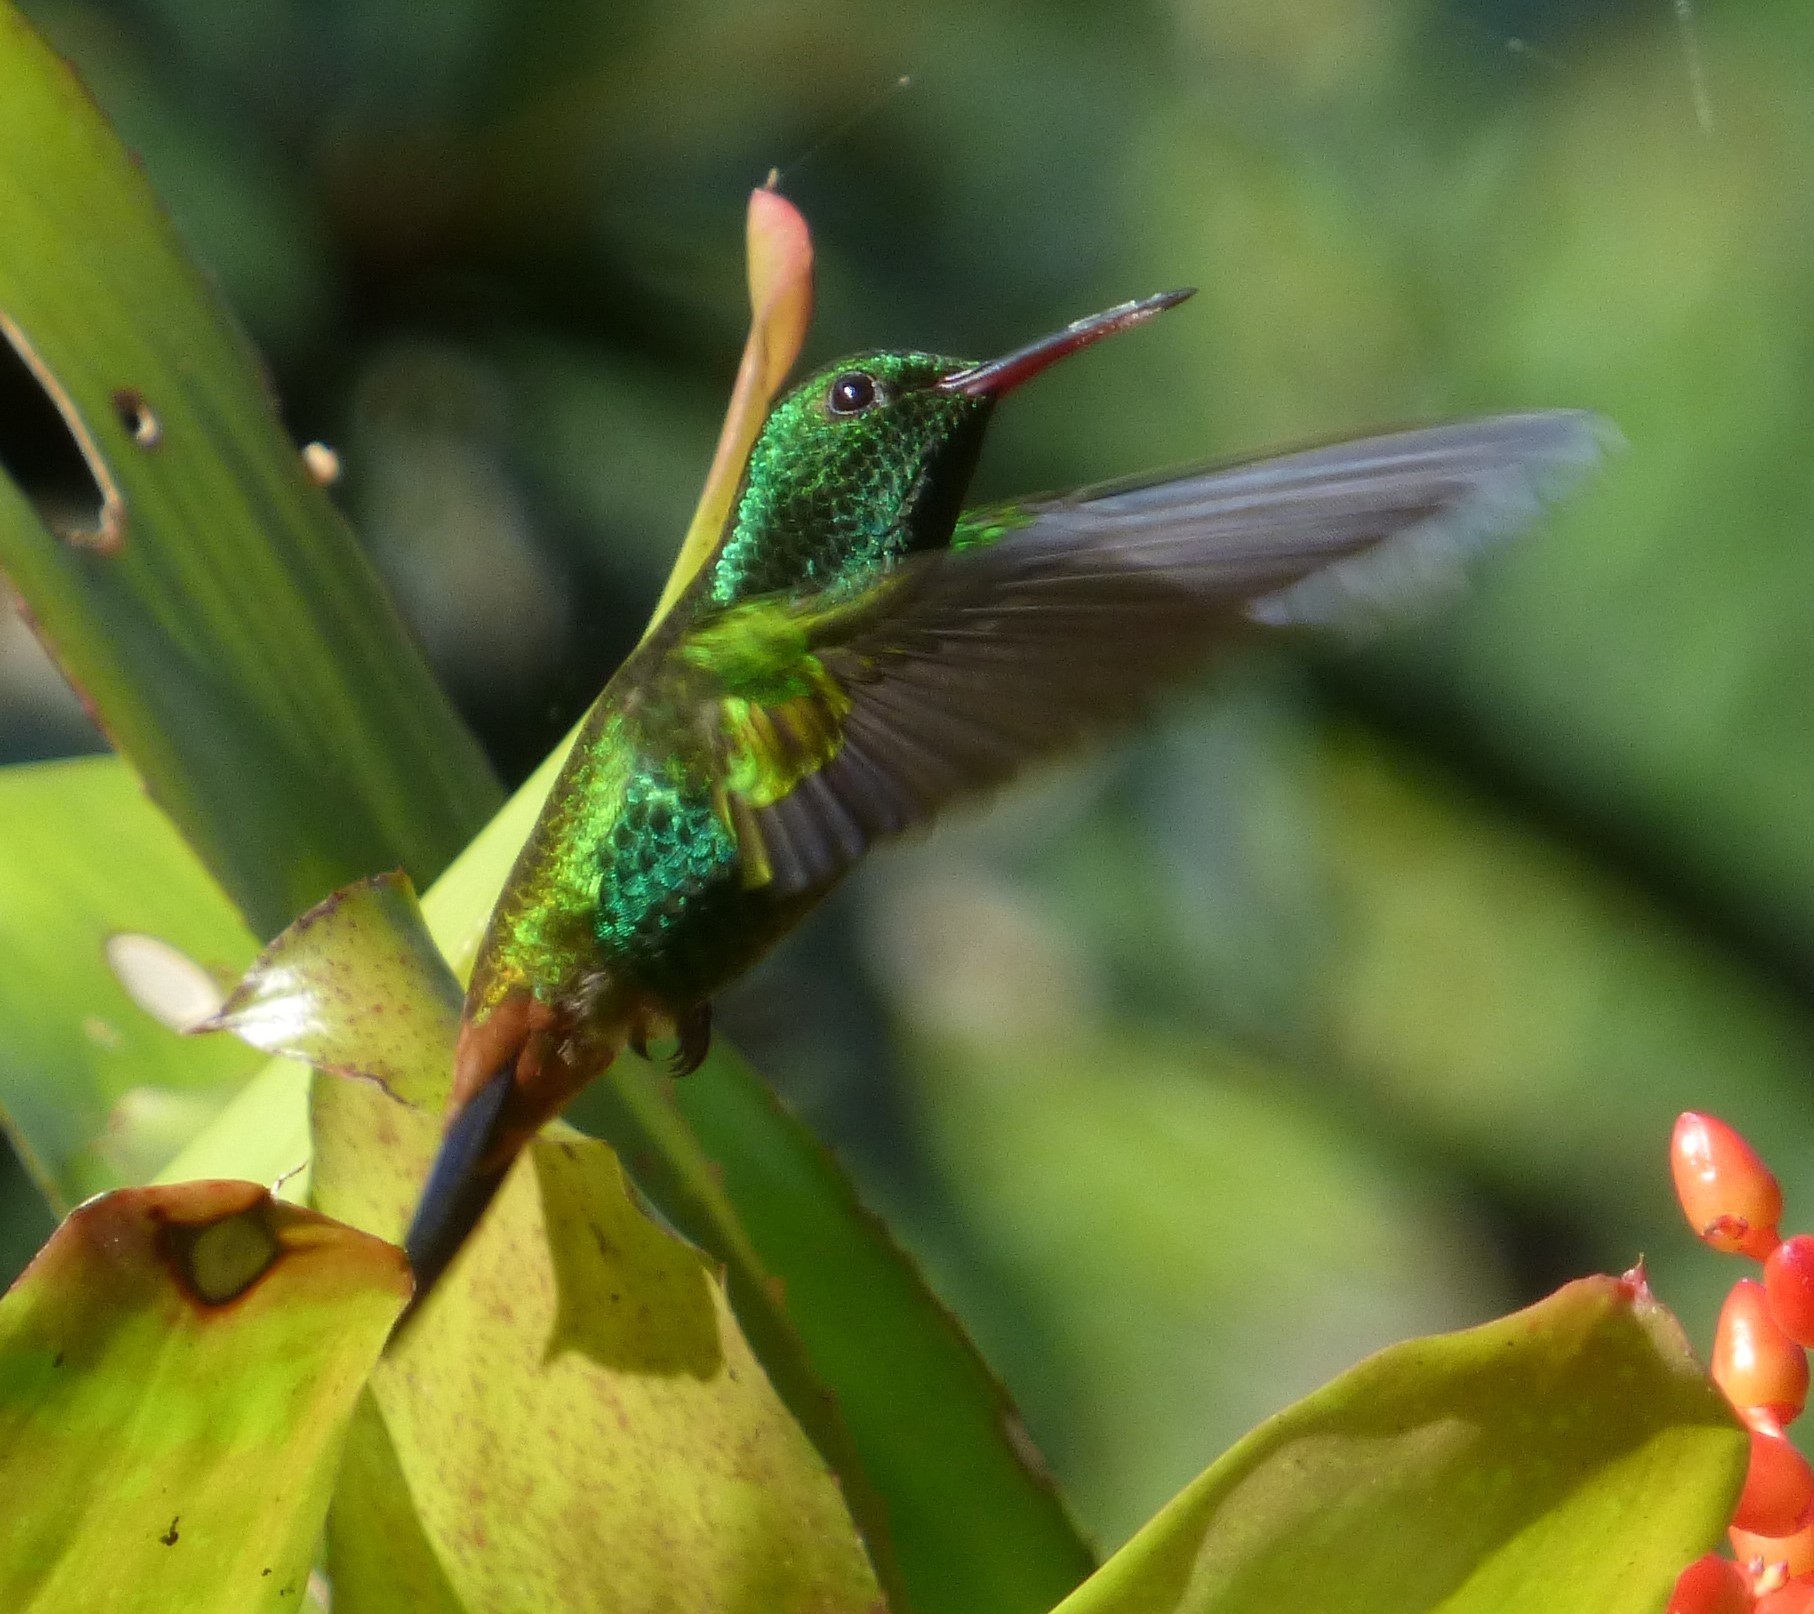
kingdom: Animalia
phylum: Chordata
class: Aves
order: Apodiformes
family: Trochilidae
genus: Saucerottia
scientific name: Saucerottia tobaci
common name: Copper-rumped hummingbird
